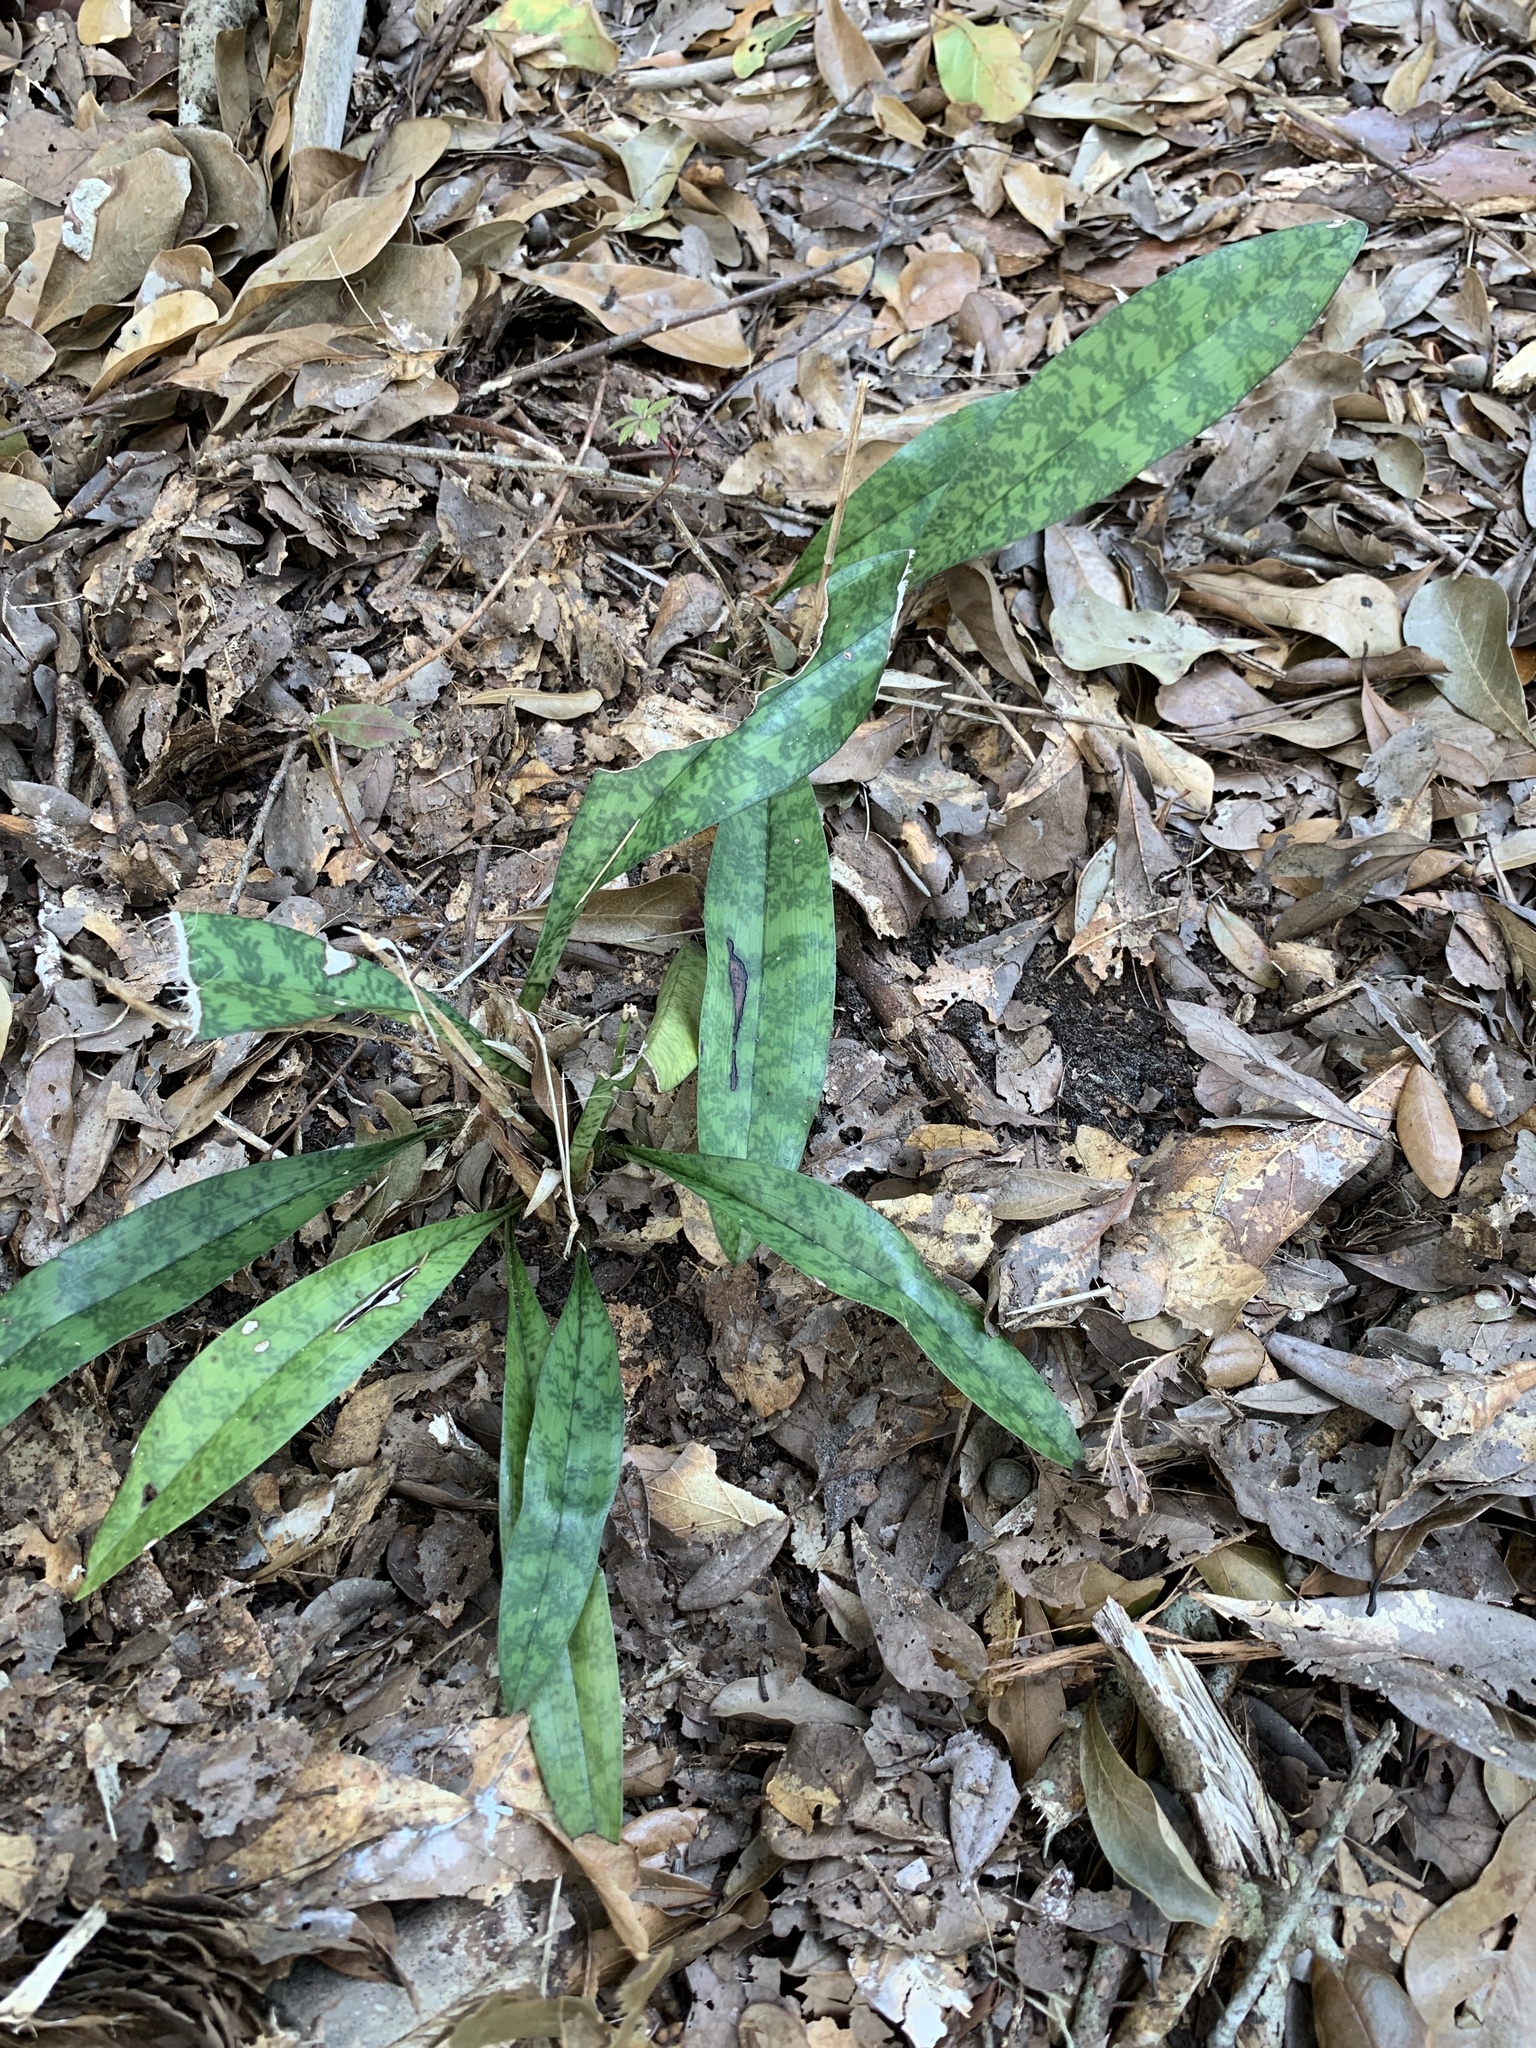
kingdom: Plantae
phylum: Tracheophyta
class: Liliopsida
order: Asparagales
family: Orchidaceae
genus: Eulophia
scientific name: Eulophia maculata
